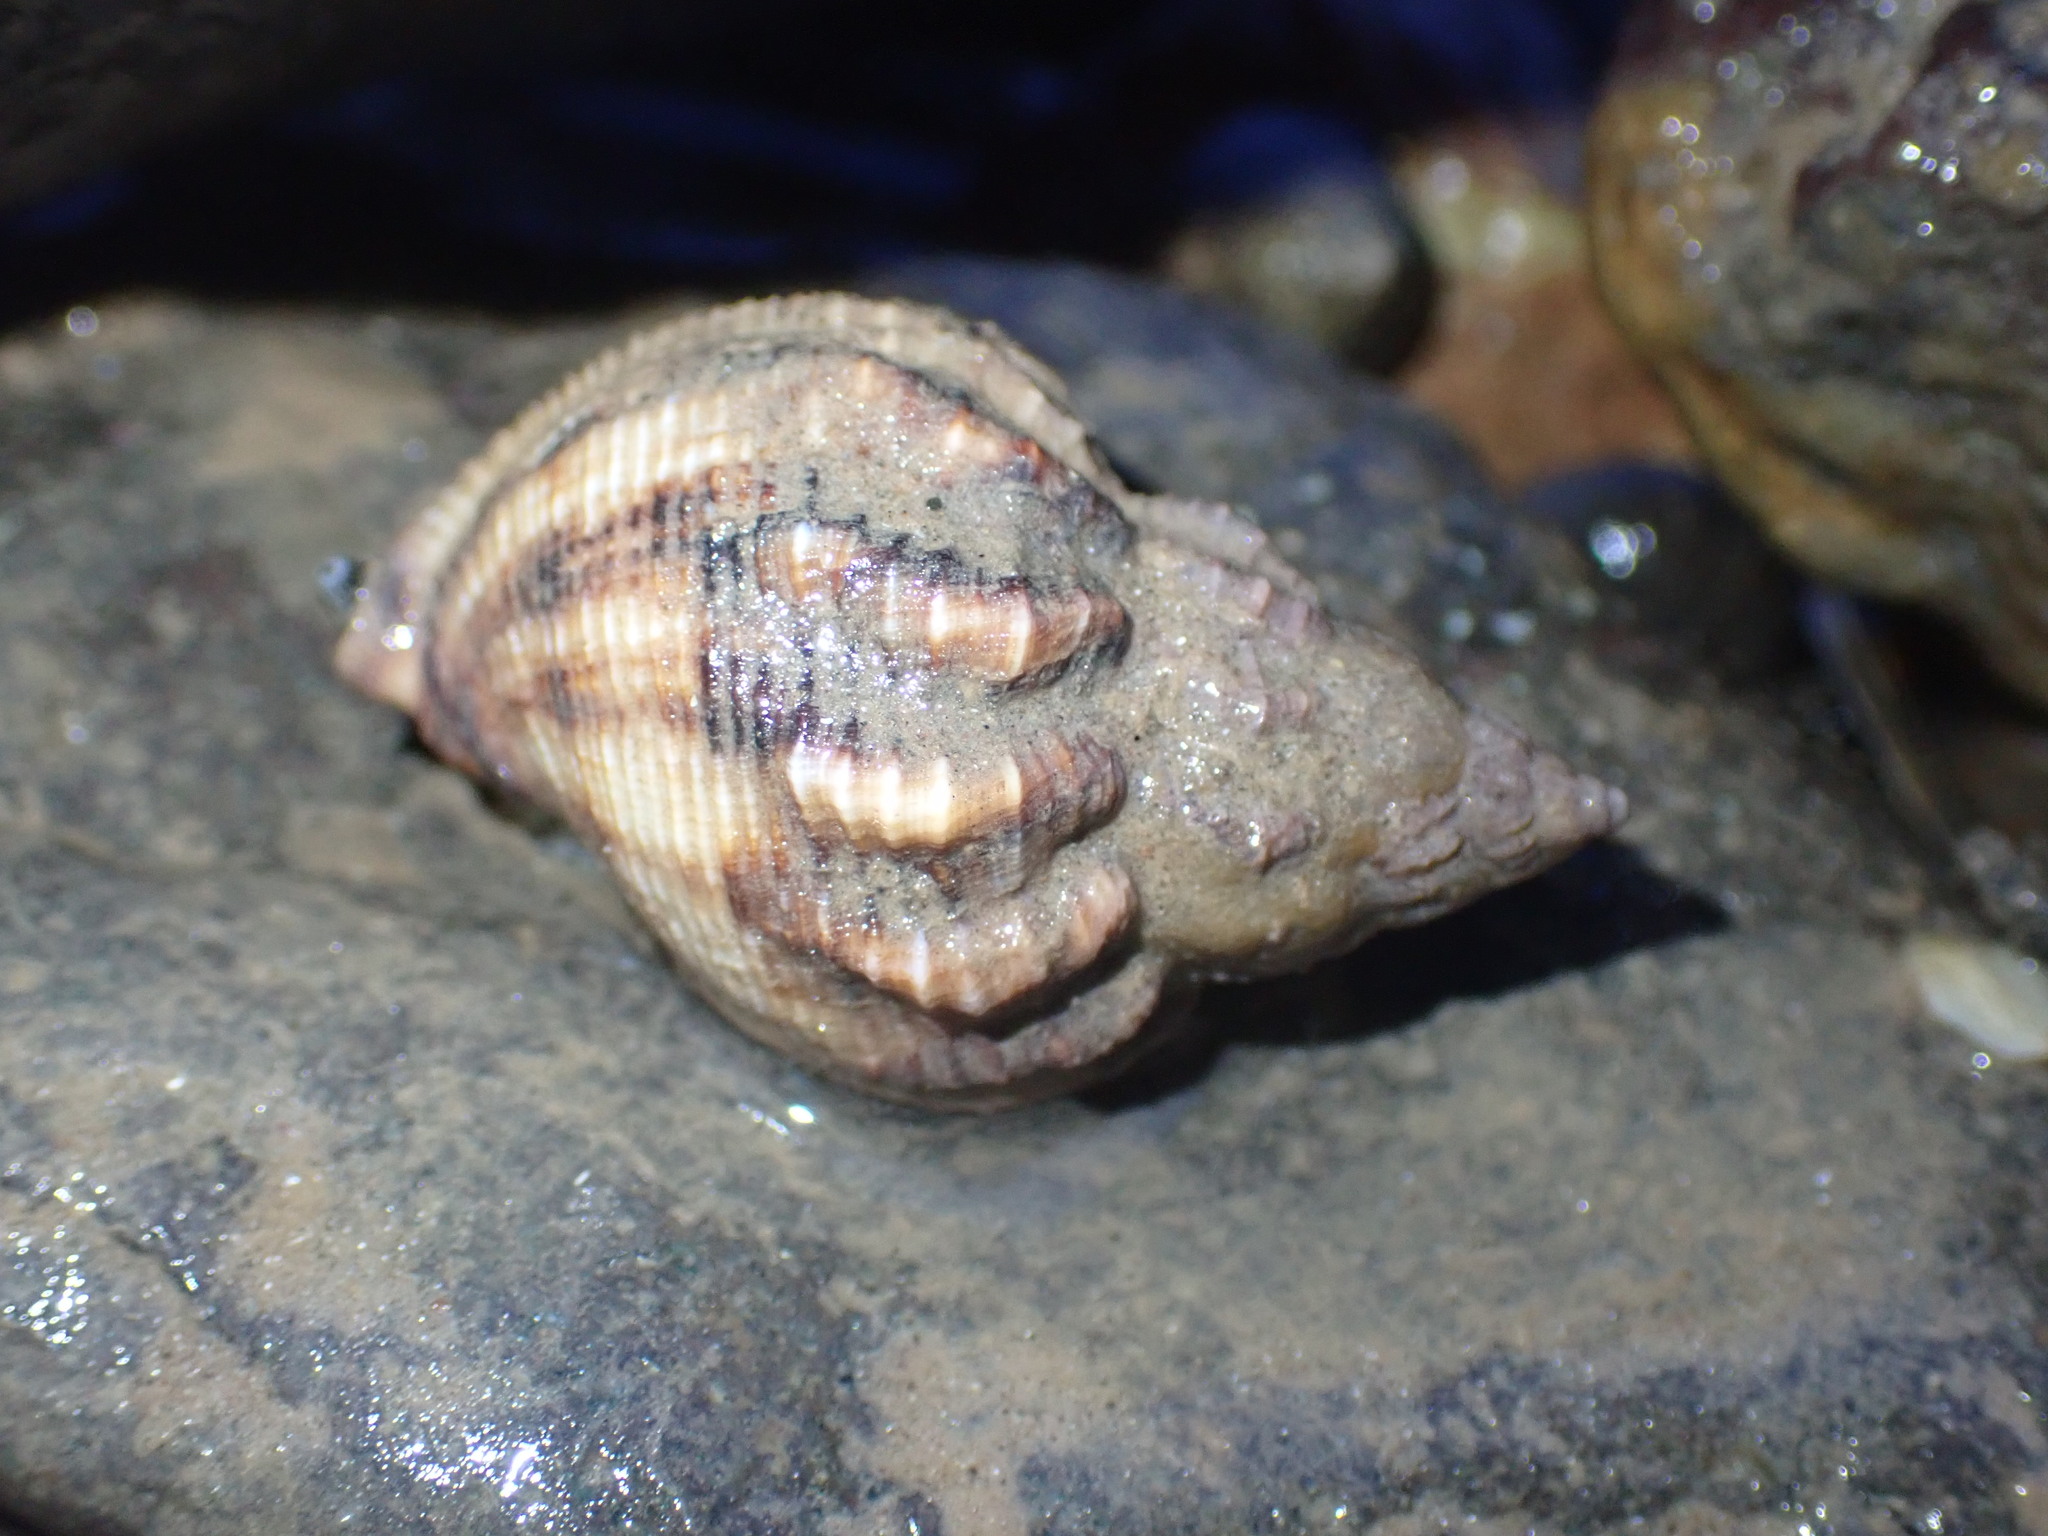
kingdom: Animalia
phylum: Mollusca
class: Gastropoda
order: Neogastropoda
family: Buccinidae
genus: Buccinum
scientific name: Buccinum undatum
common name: Common whelk
